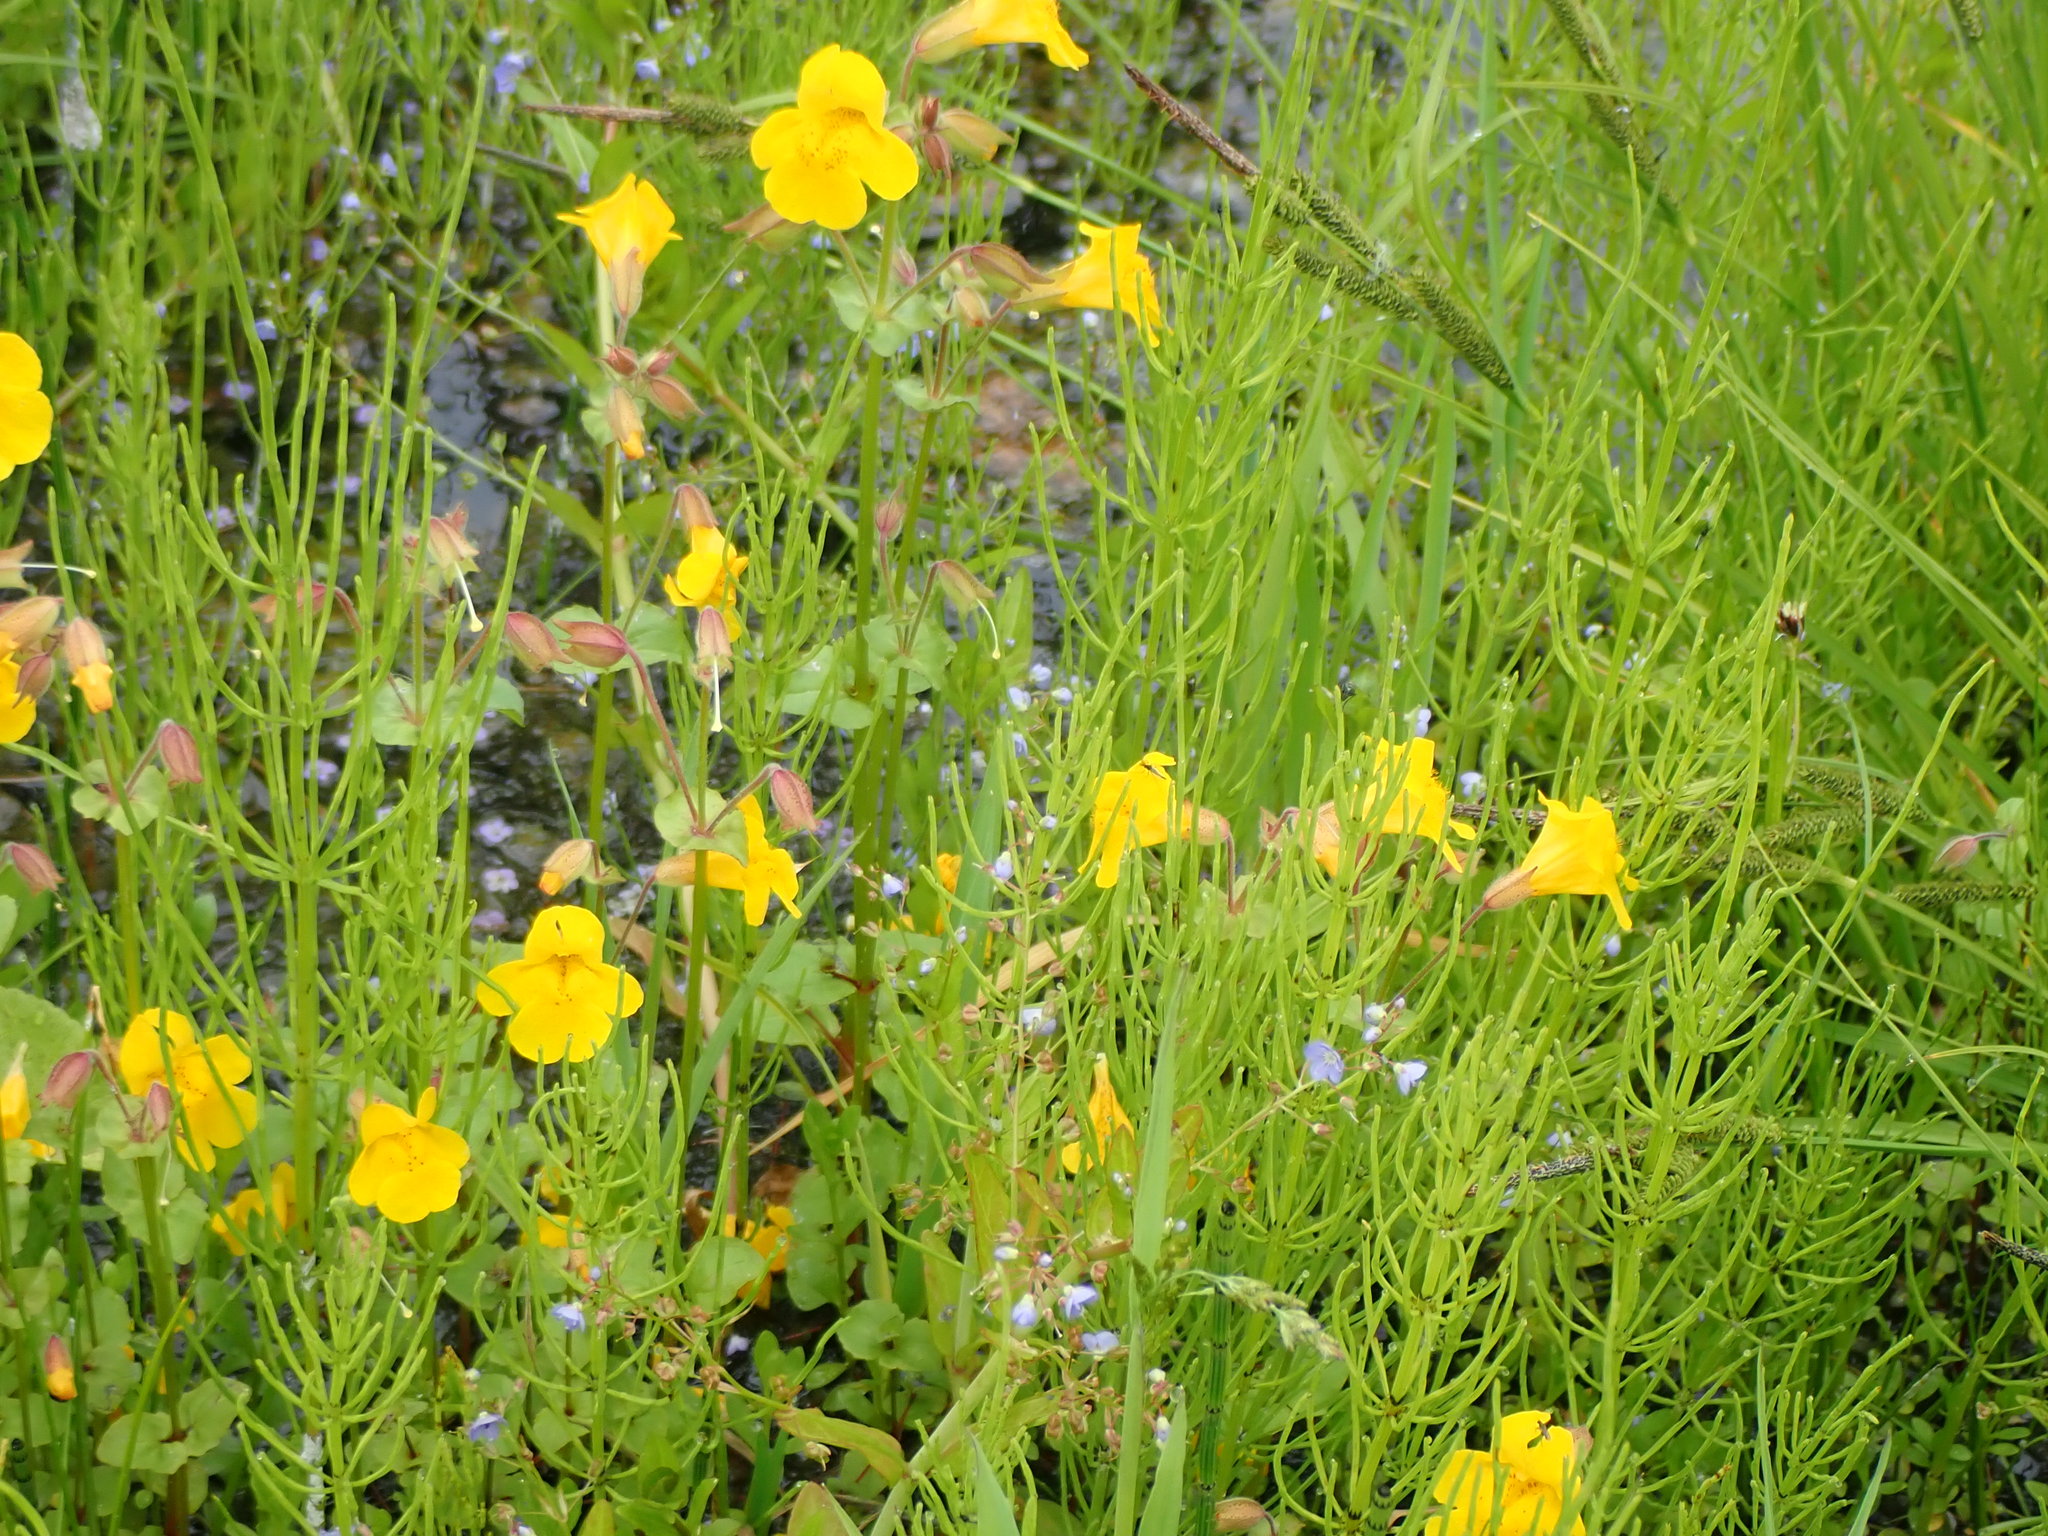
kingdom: Plantae
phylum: Tracheophyta
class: Magnoliopsida
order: Lamiales
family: Phrymaceae
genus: Erythranthe
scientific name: Erythranthe guttata
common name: Monkeyflower
